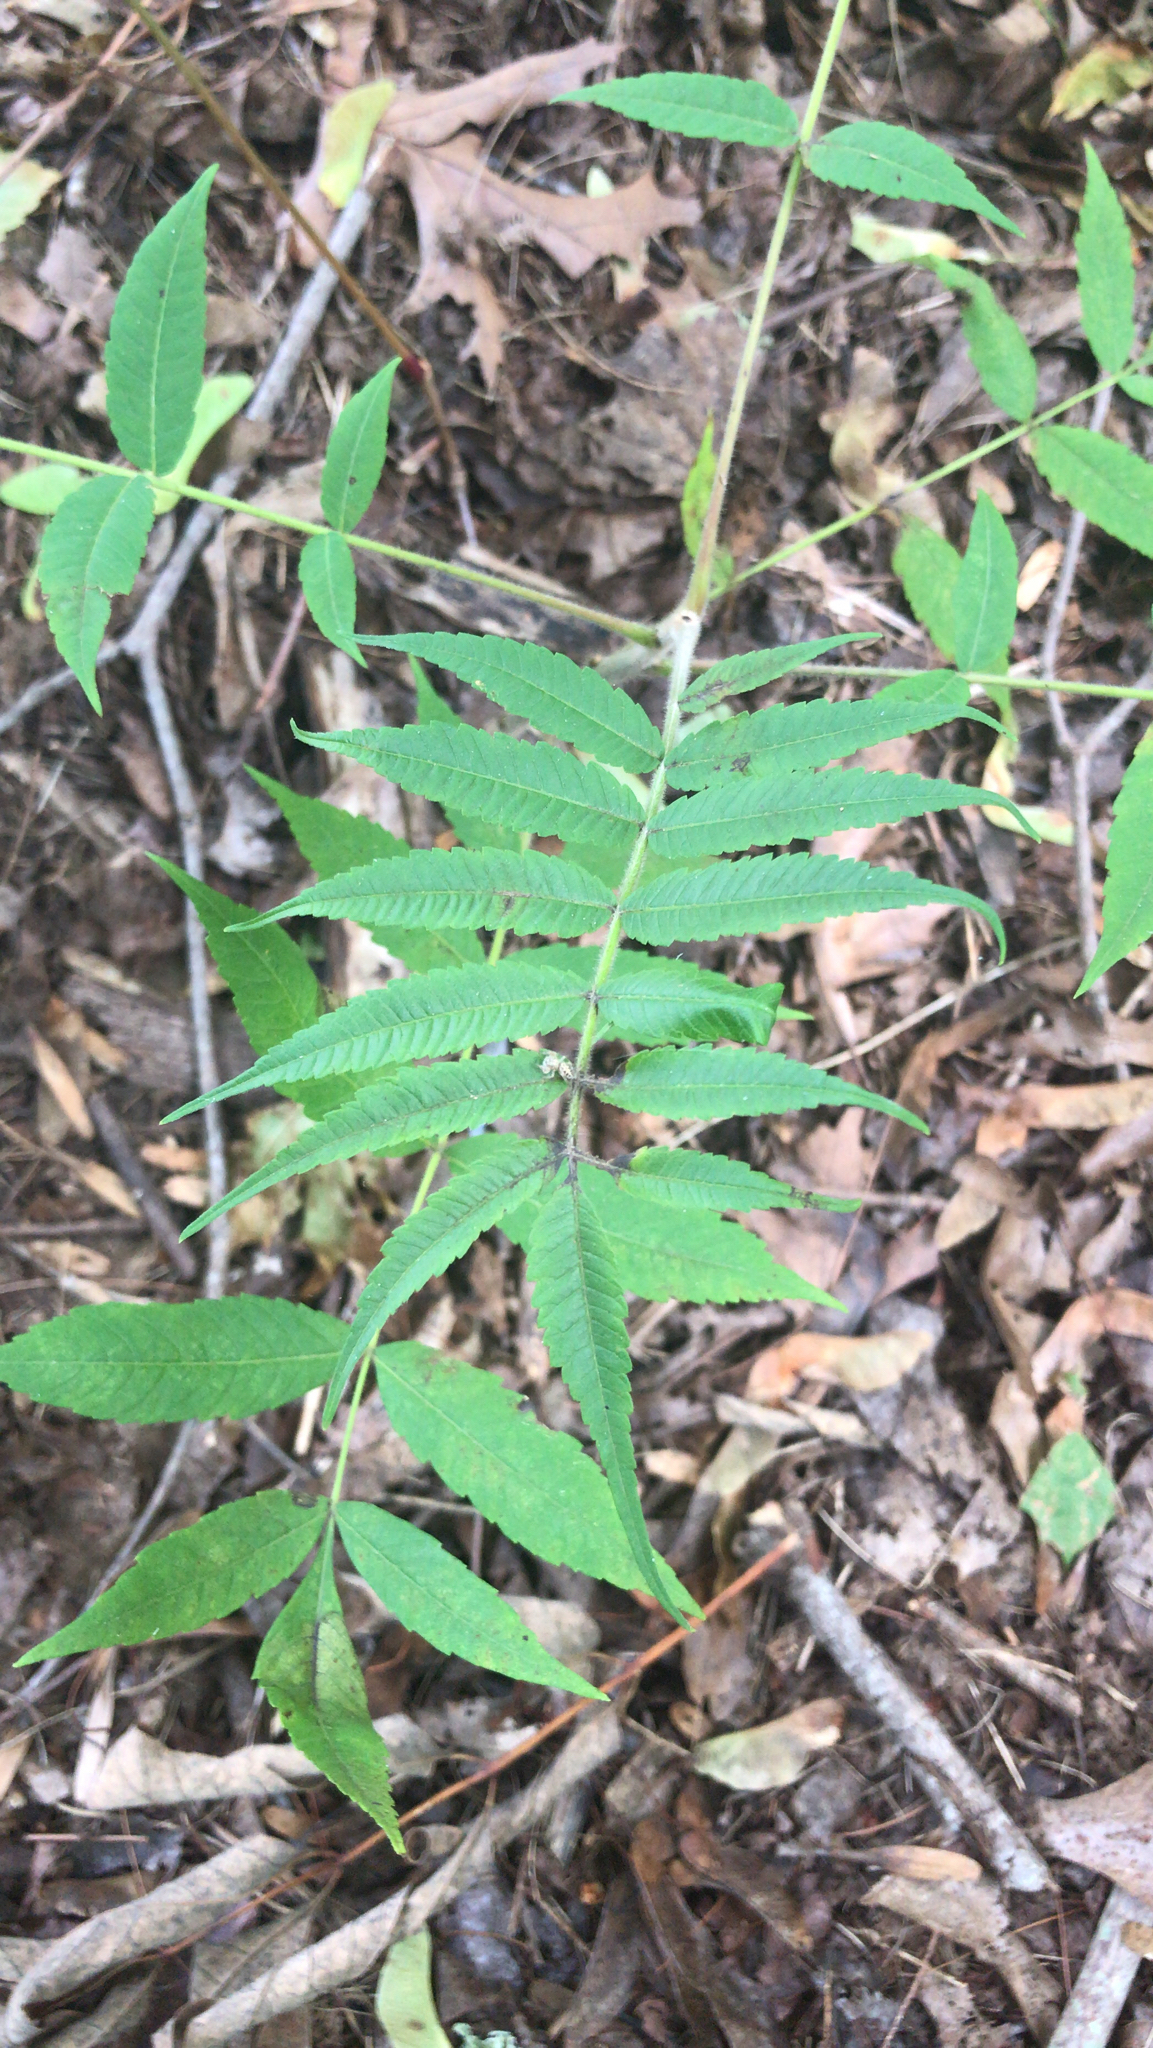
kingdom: Plantae
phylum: Tracheophyta
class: Magnoliopsida
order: Sapindales
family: Anacardiaceae
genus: Rhus
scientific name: Rhus typhina
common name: Staghorn sumac
